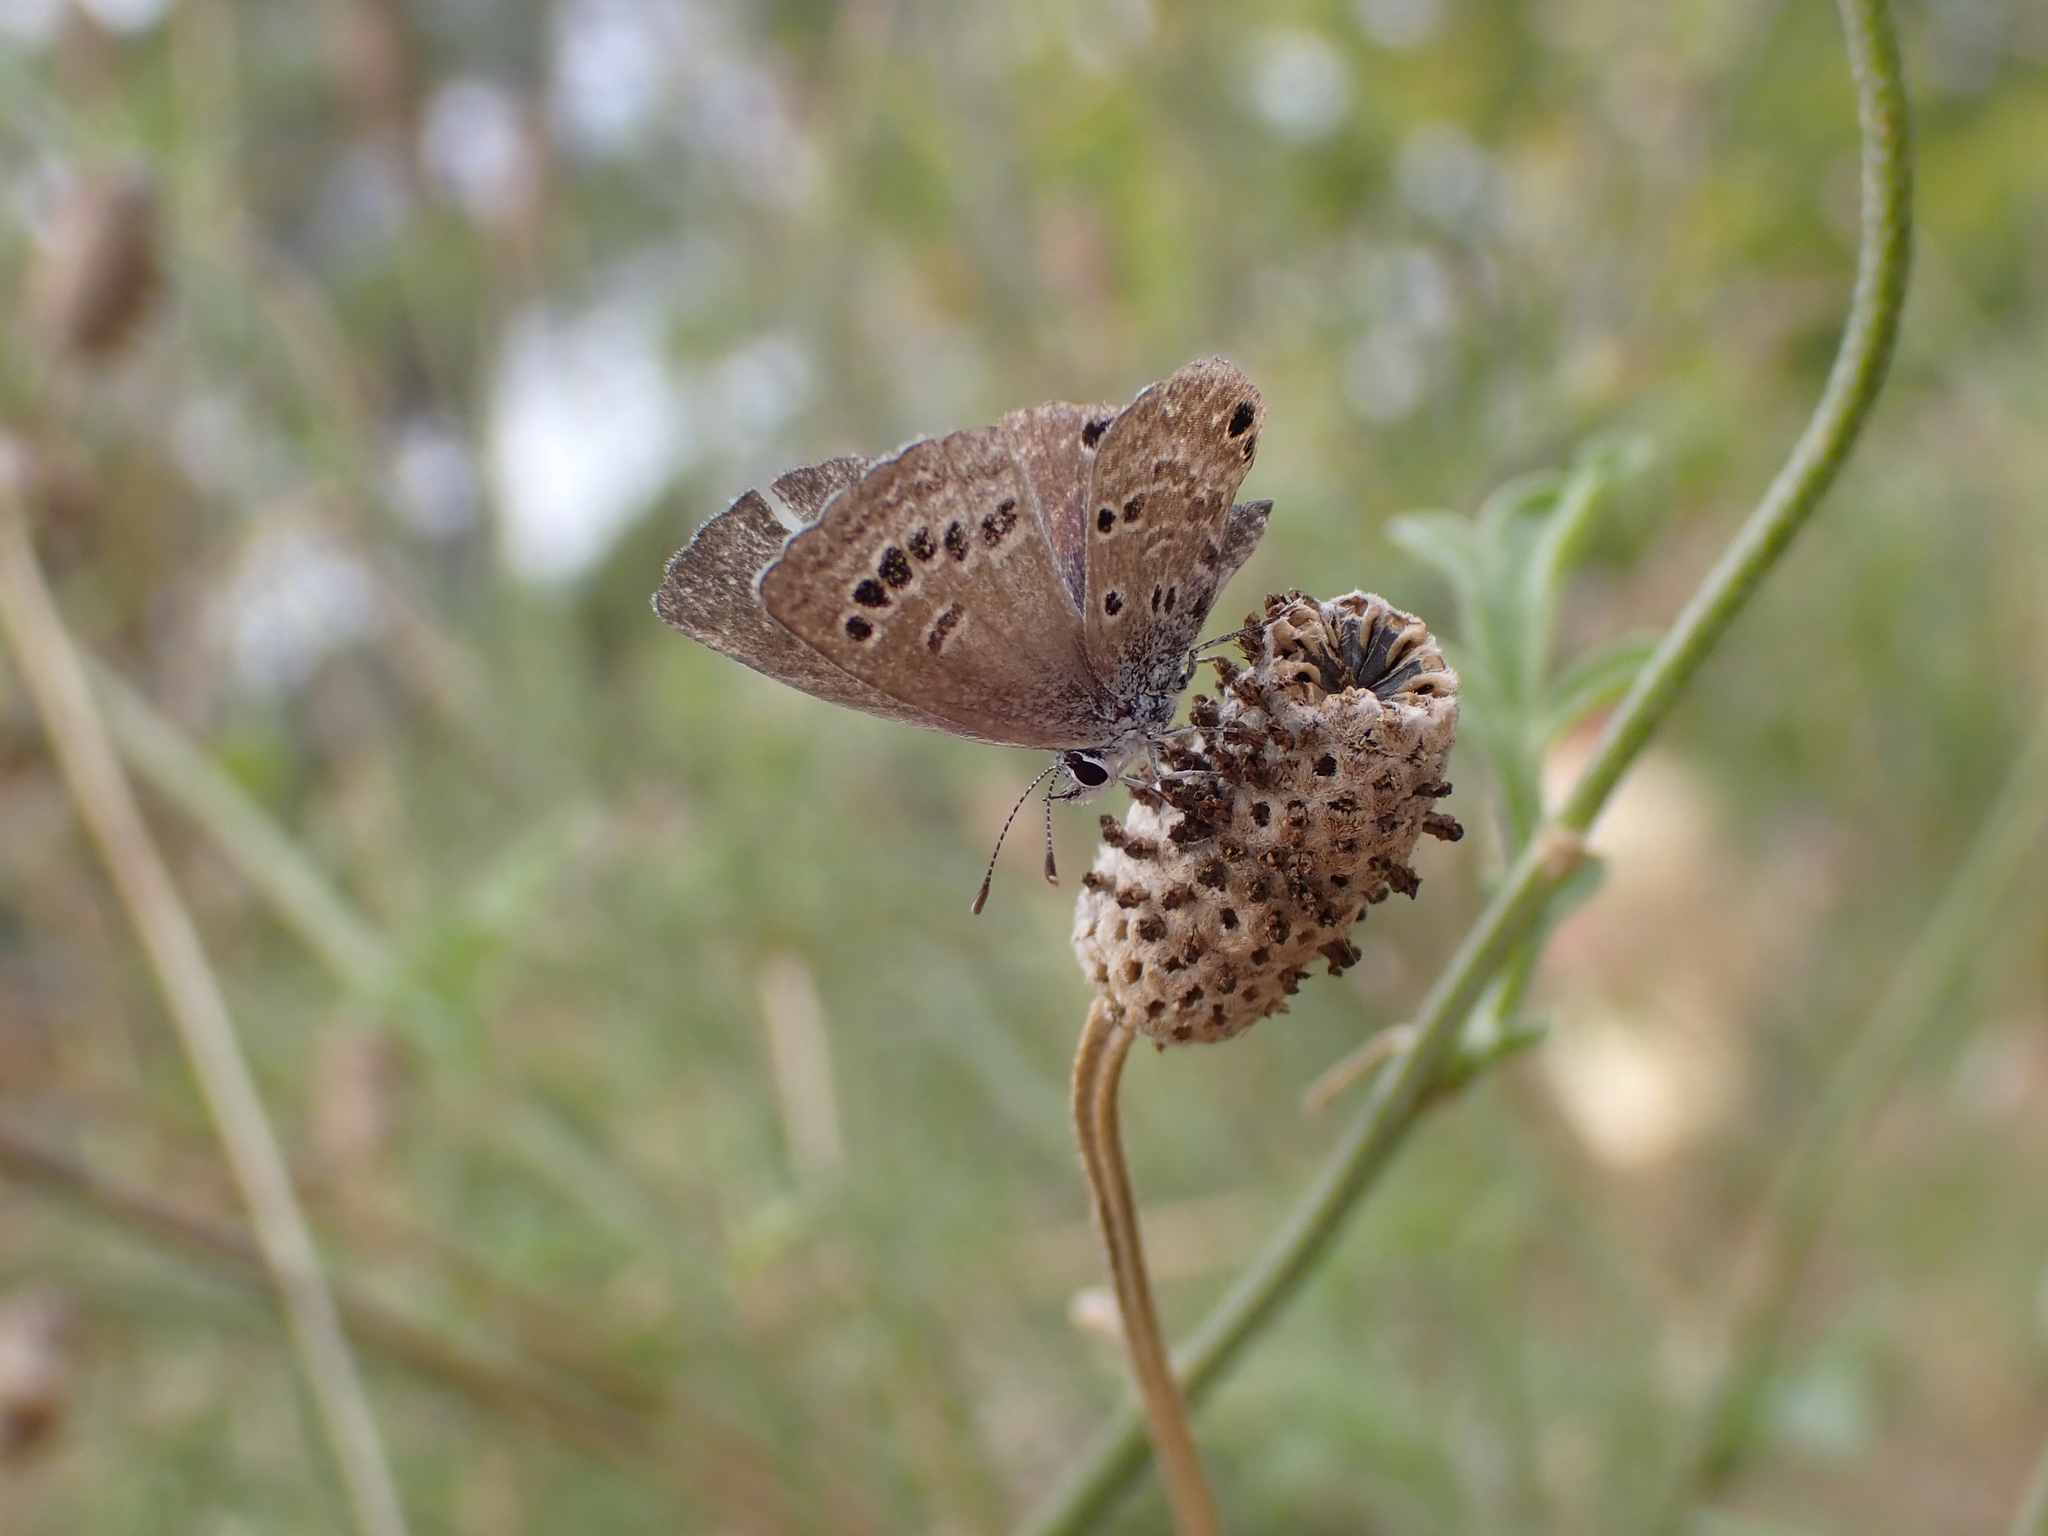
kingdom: Animalia
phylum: Arthropoda
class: Insecta
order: Lepidoptera
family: Lycaenidae
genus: Echinargus
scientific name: Echinargus isola
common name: Reakirt's blue
